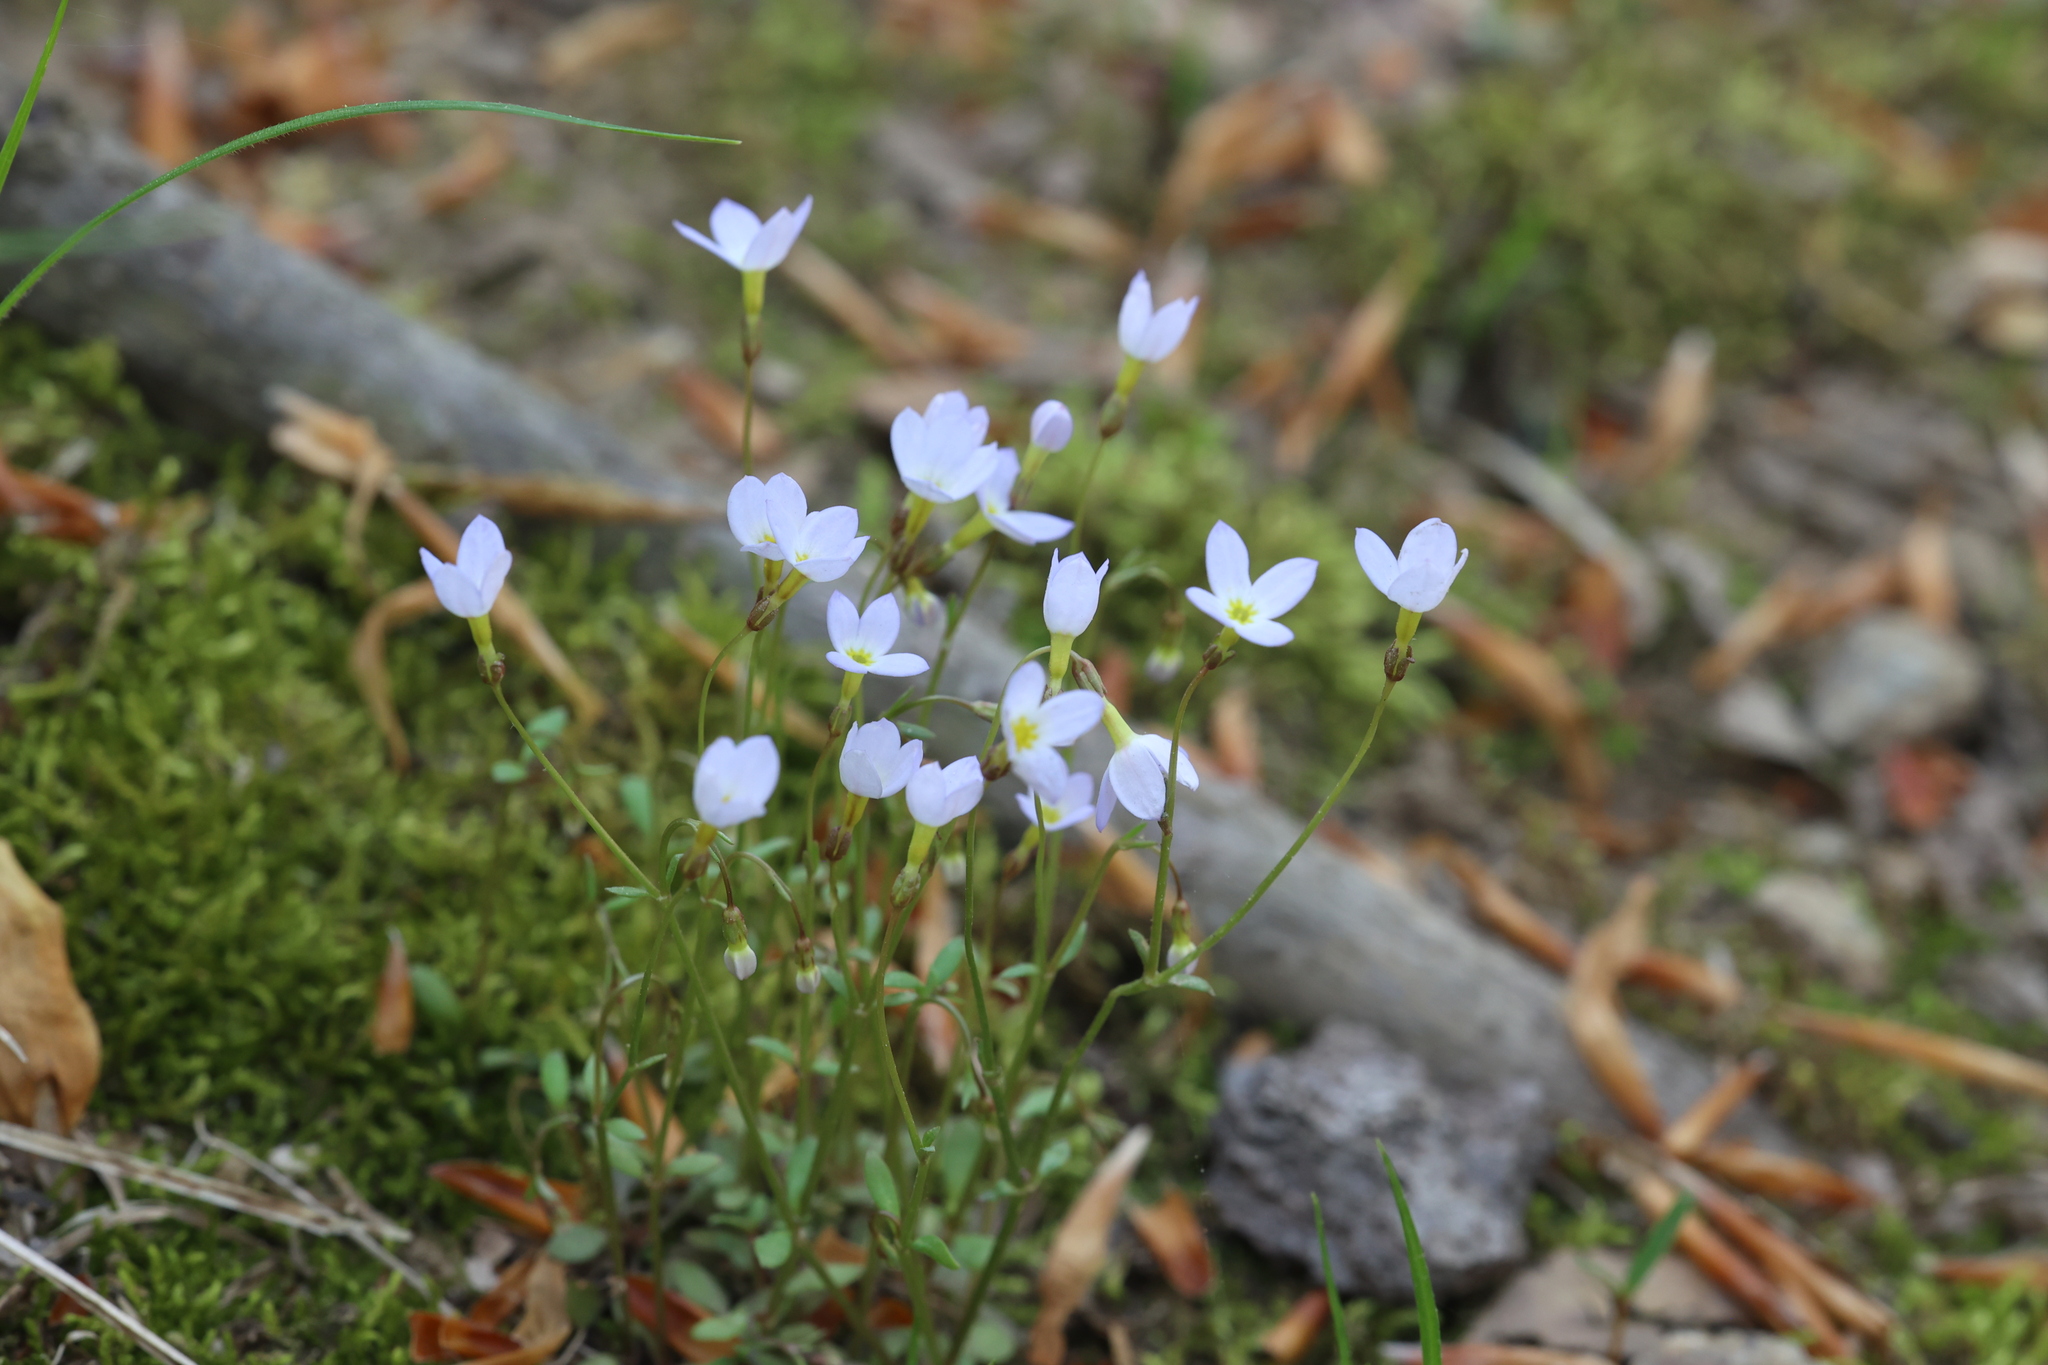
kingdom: Plantae
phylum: Tracheophyta
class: Magnoliopsida
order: Gentianales
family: Rubiaceae
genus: Houstonia
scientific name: Houstonia caerulea
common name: Bluets
